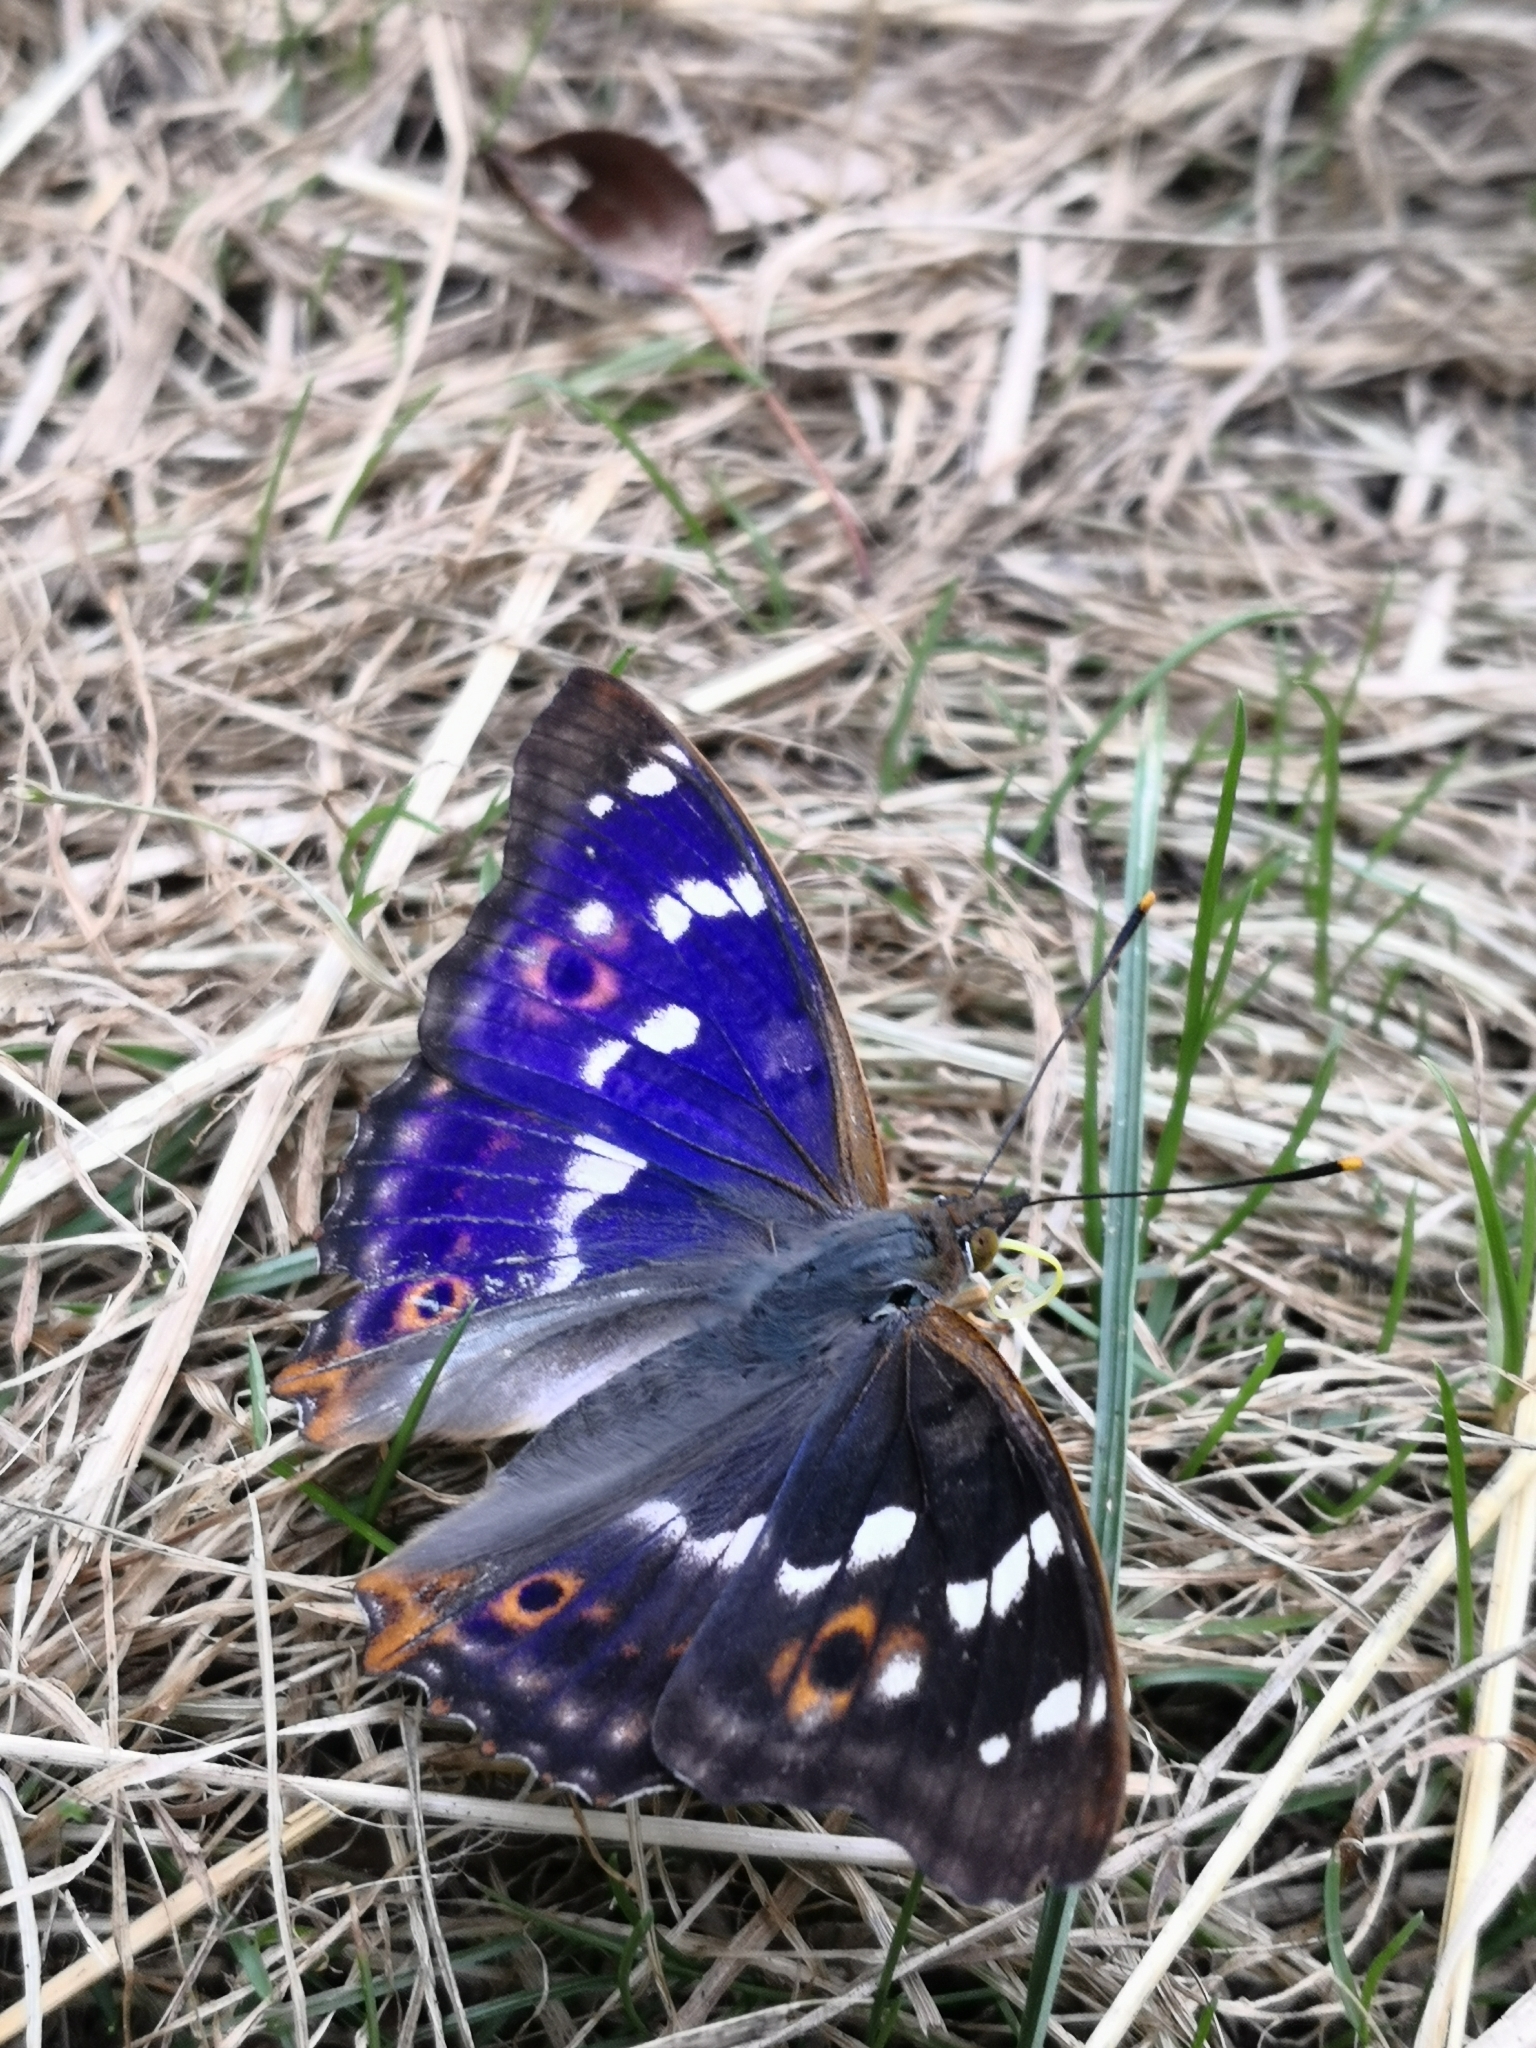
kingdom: Animalia
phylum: Arthropoda
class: Insecta
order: Lepidoptera
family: Nymphalidae
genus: Apatura
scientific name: Apatura ilia
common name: Lesser purple emperor
